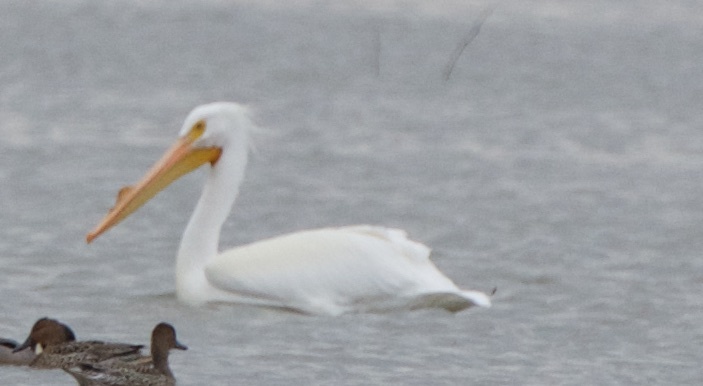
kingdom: Animalia
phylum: Chordata
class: Aves
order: Pelecaniformes
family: Pelecanidae
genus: Pelecanus
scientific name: Pelecanus erythrorhynchos
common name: American white pelican
